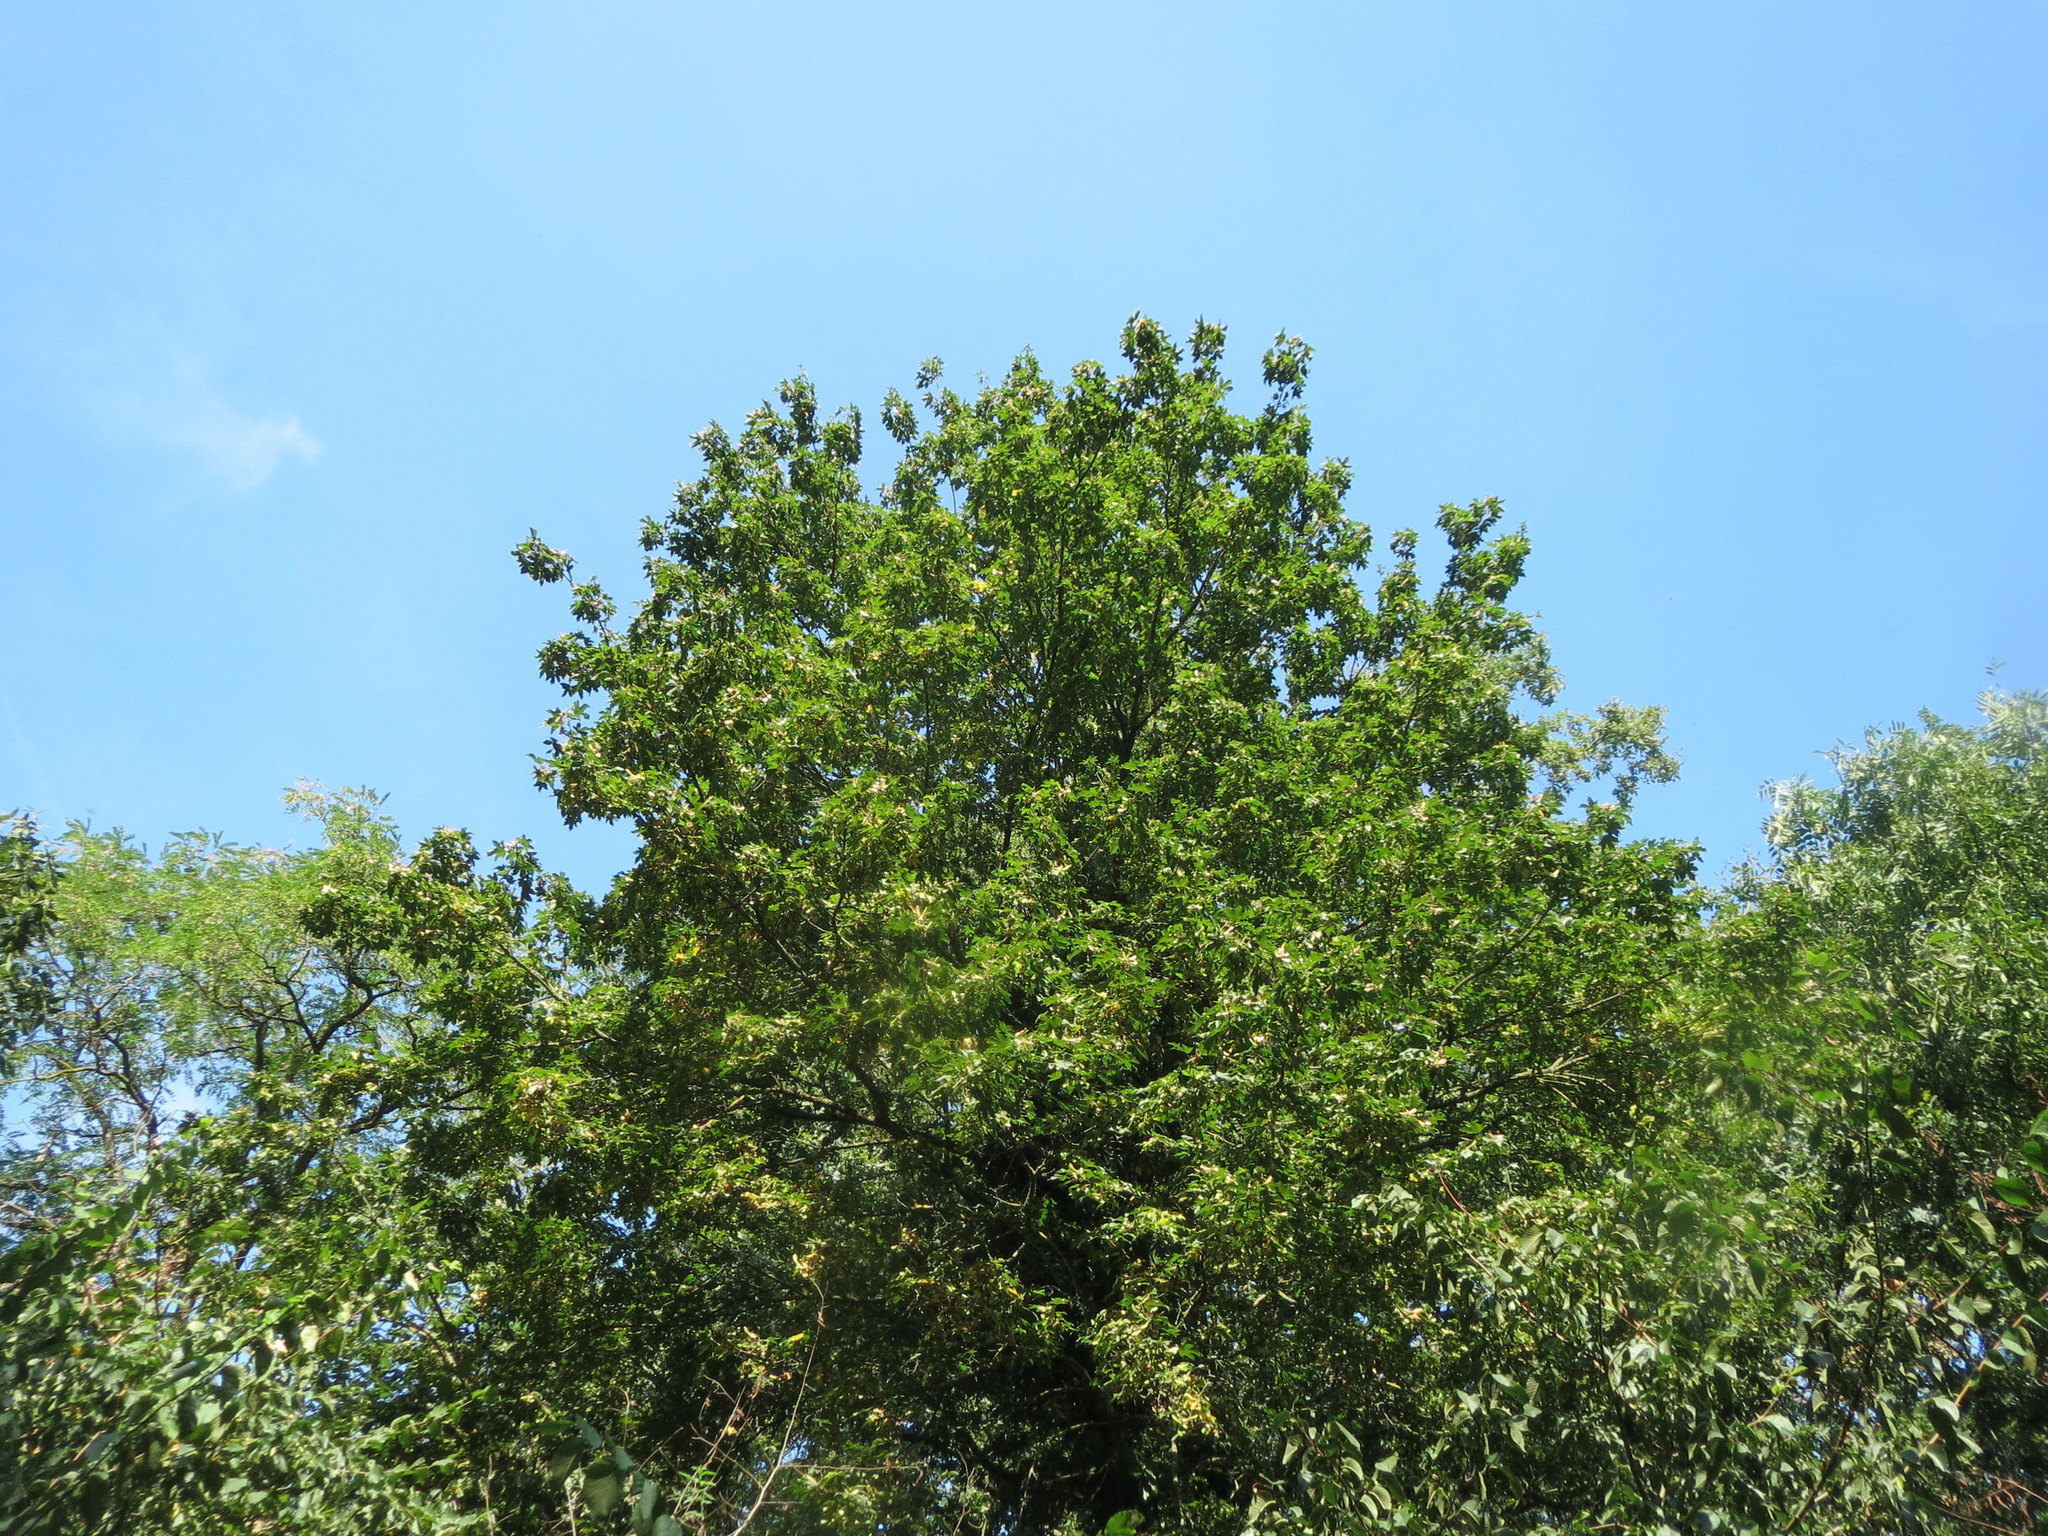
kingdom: Plantae
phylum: Tracheophyta
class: Magnoliopsida
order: Sapindales
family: Sapindaceae
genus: Acer
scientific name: Acer pseudoplatanus
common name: Sycamore
